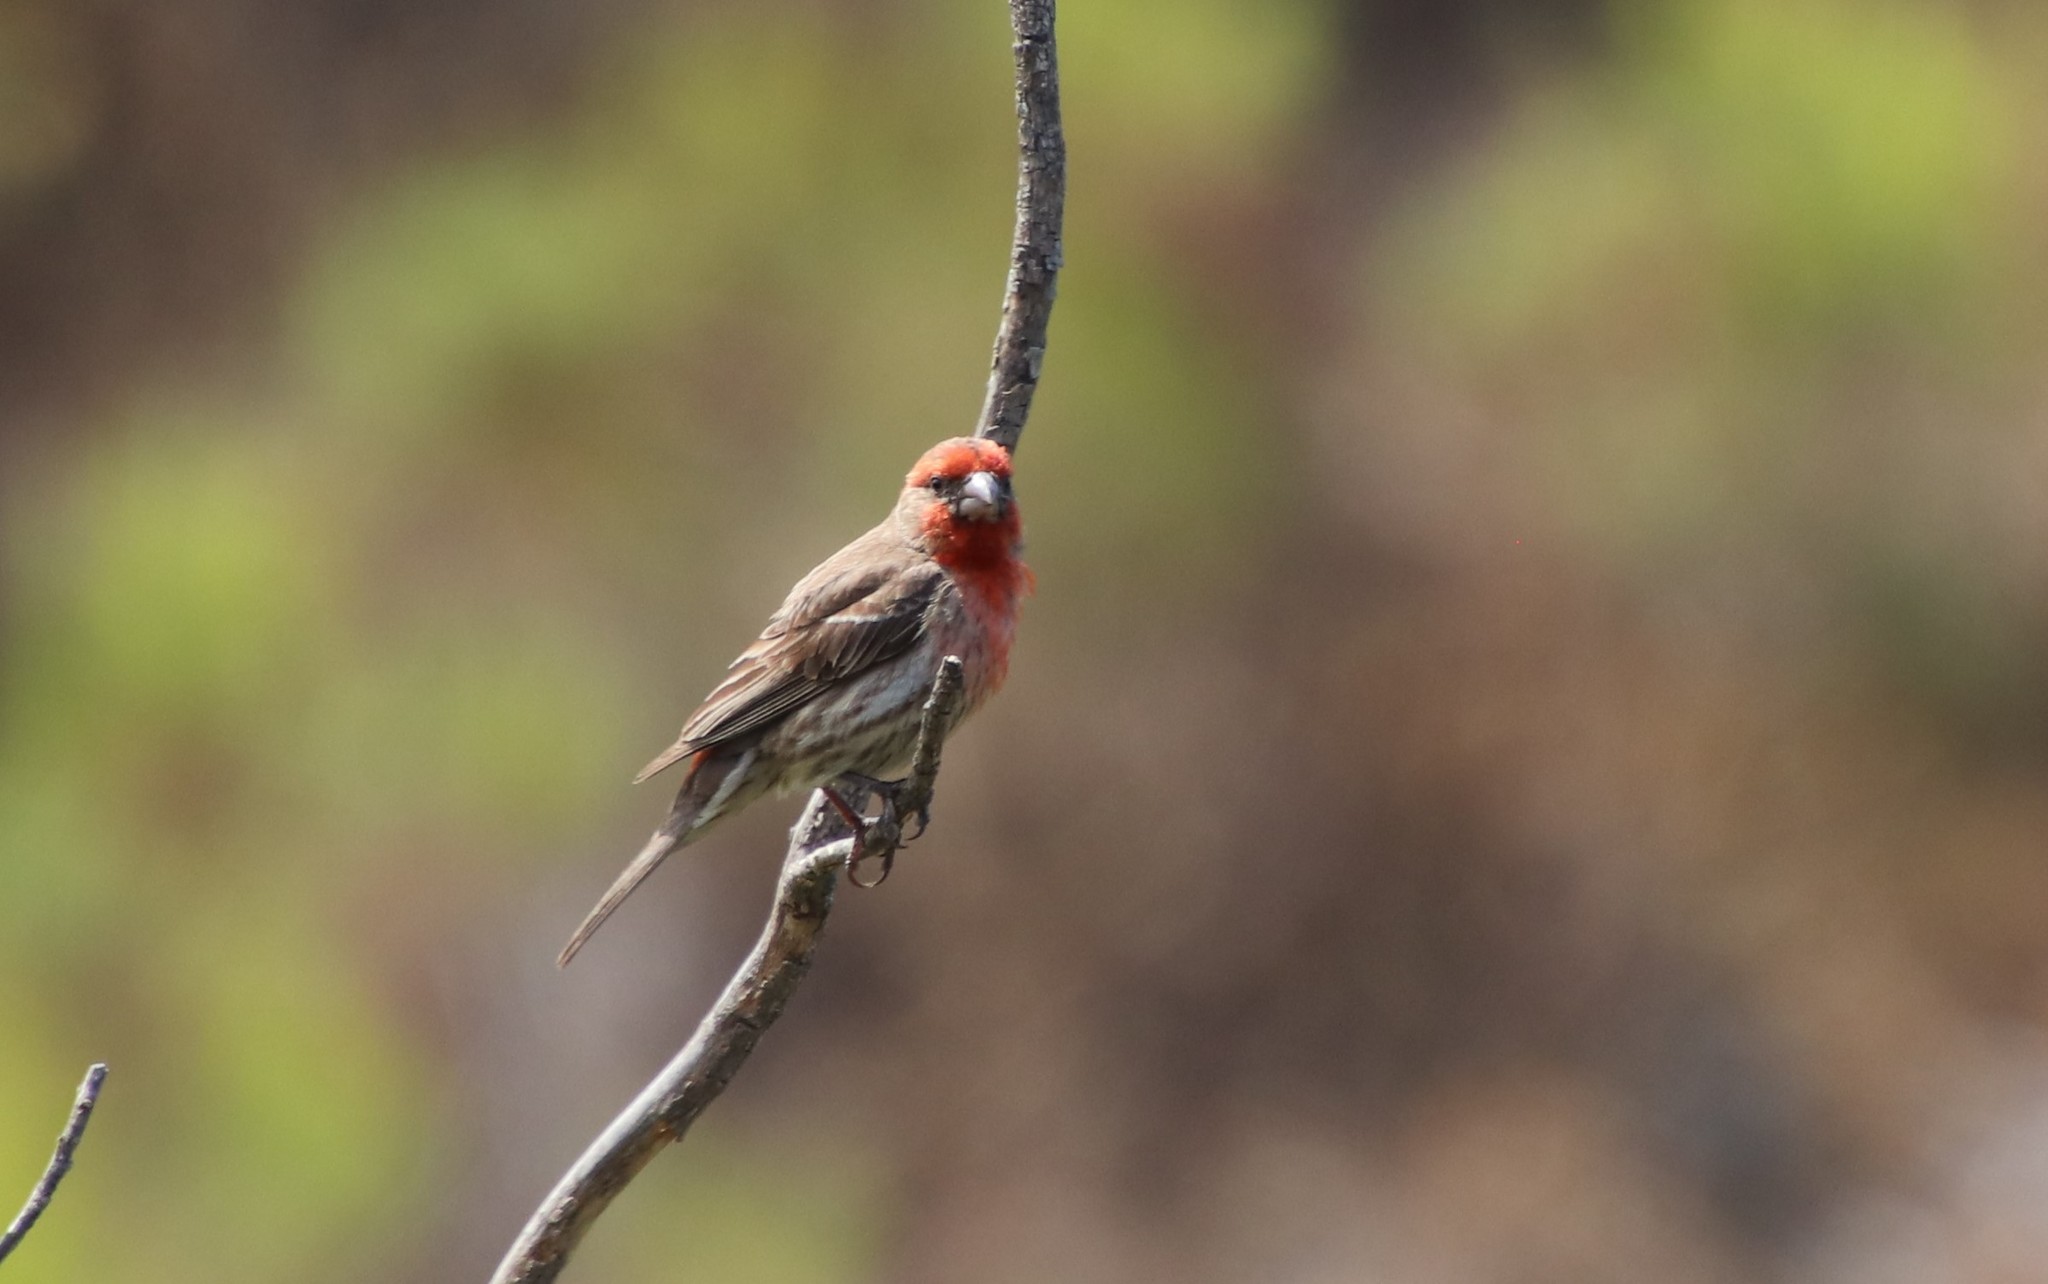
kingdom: Animalia
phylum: Chordata
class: Aves
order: Passeriformes
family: Fringillidae
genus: Haemorhous
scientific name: Haemorhous mexicanus
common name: House finch
